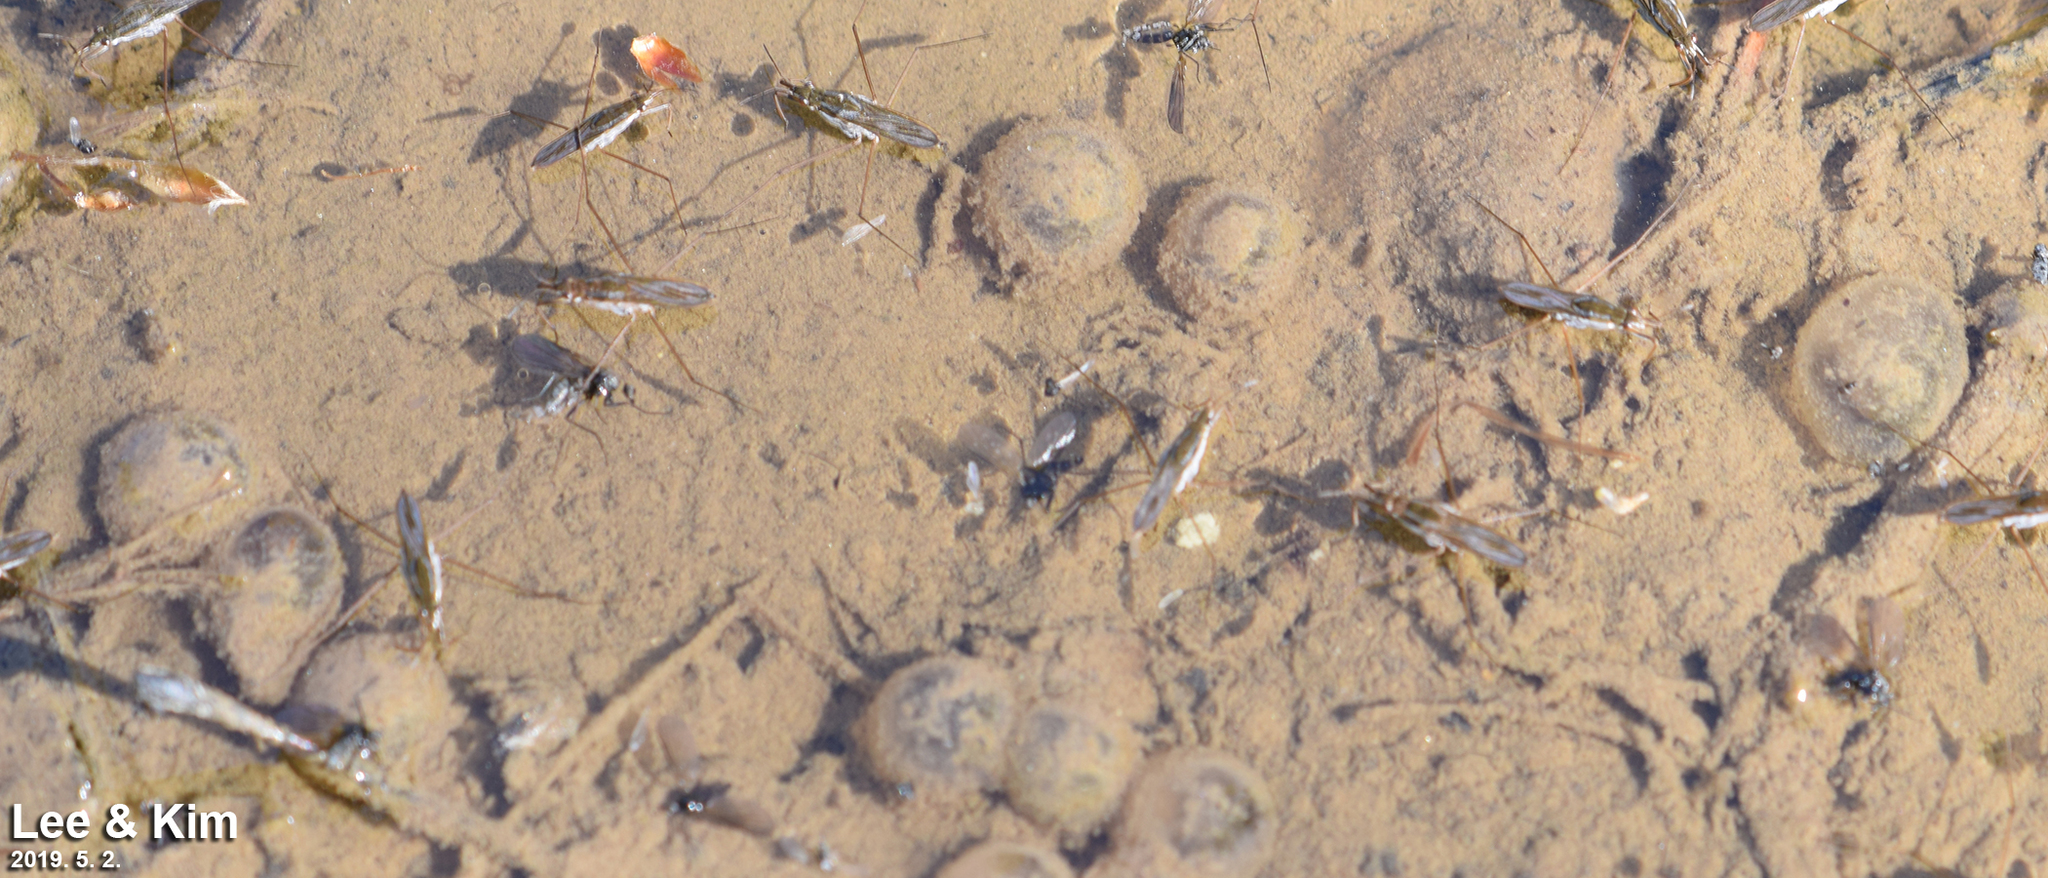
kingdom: Animalia
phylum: Chordata
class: Amphibia
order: Anura
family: Bombinatoridae
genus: Bombina
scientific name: Bombina orientalis
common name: Oriental firebelly toad
